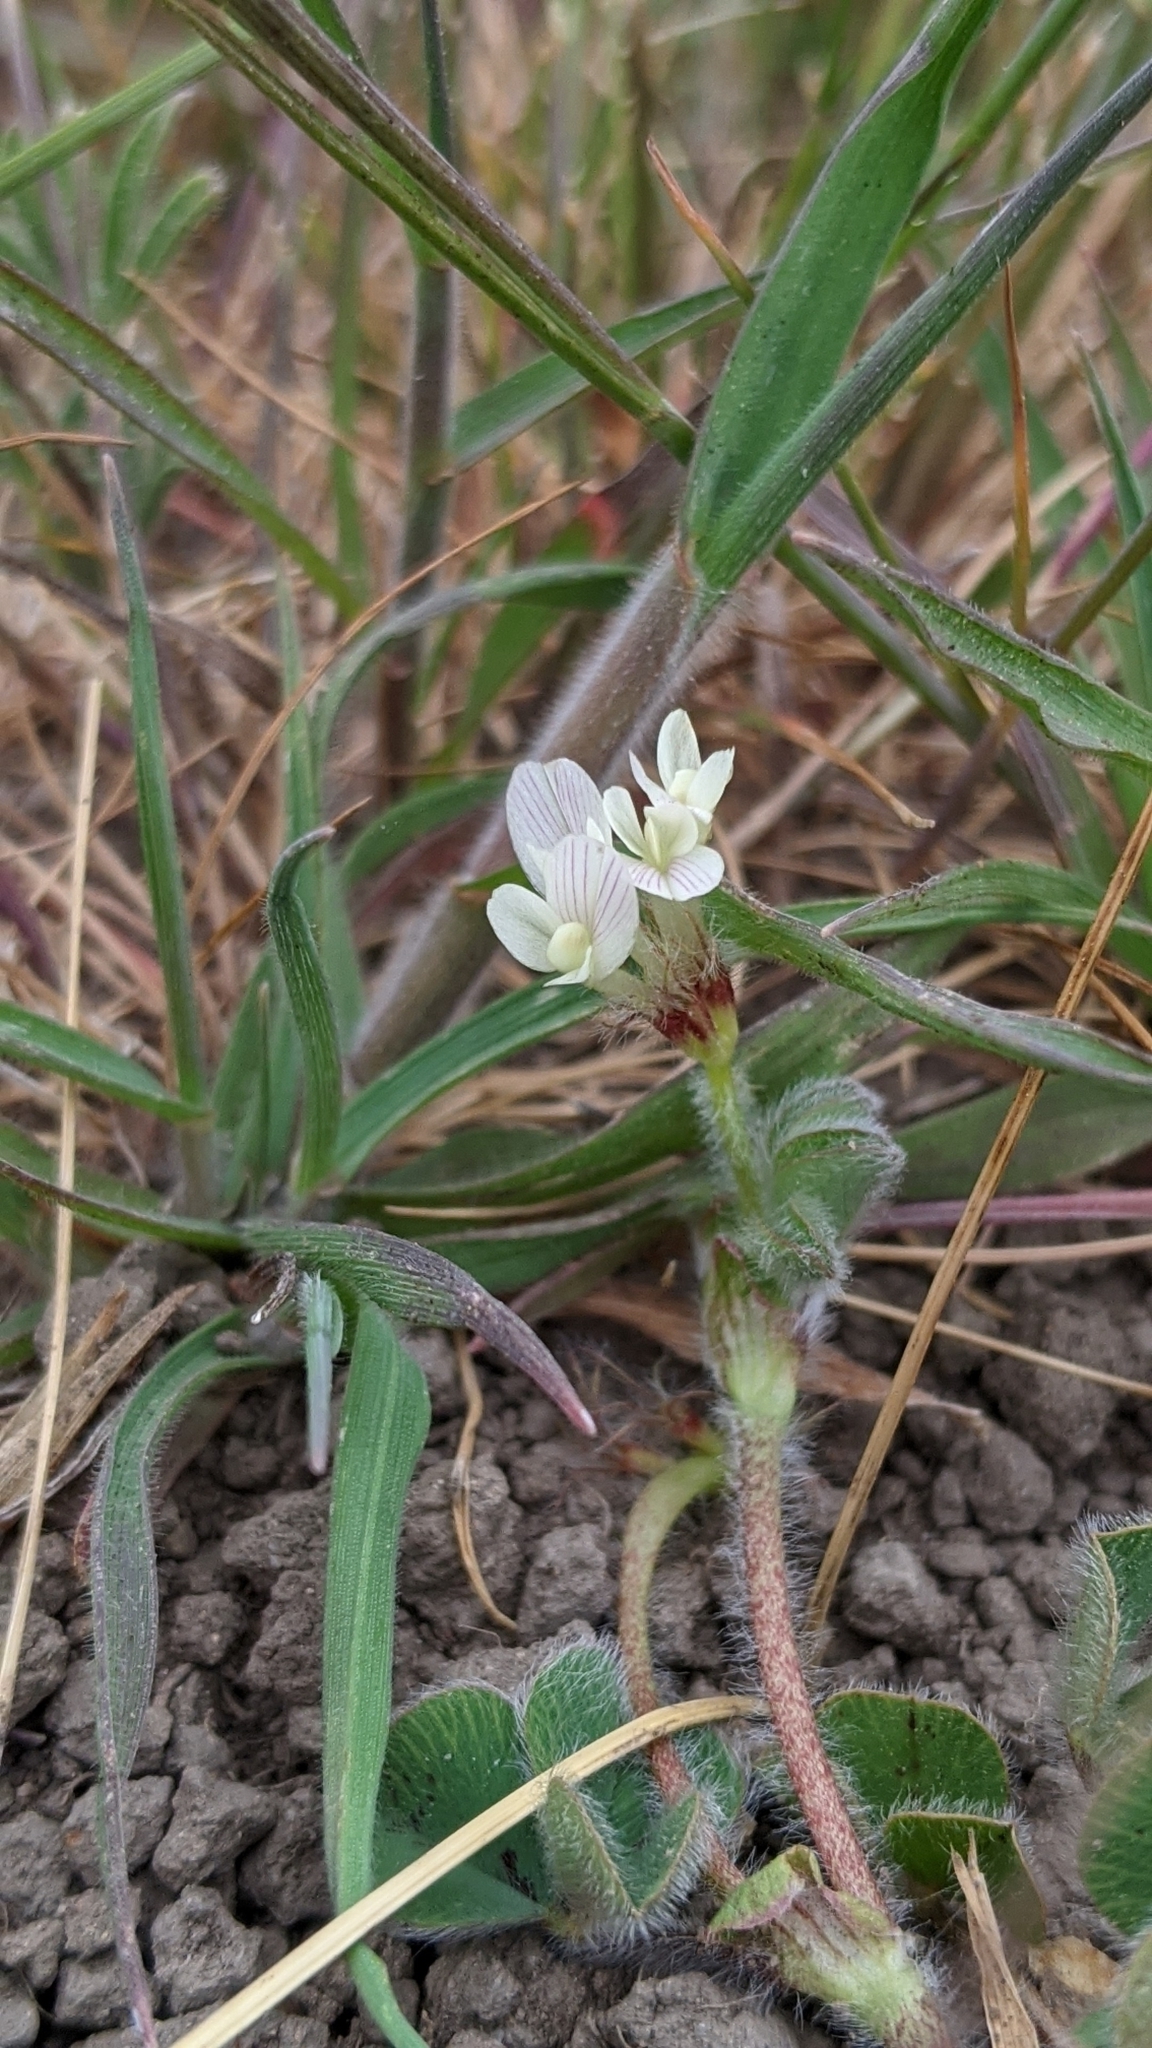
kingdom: Plantae
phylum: Tracheophyta
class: Magnoliopsida
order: Fabales
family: Fabaceae
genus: Trifolium
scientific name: Trifolium subterraneum
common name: Subterranean clover
